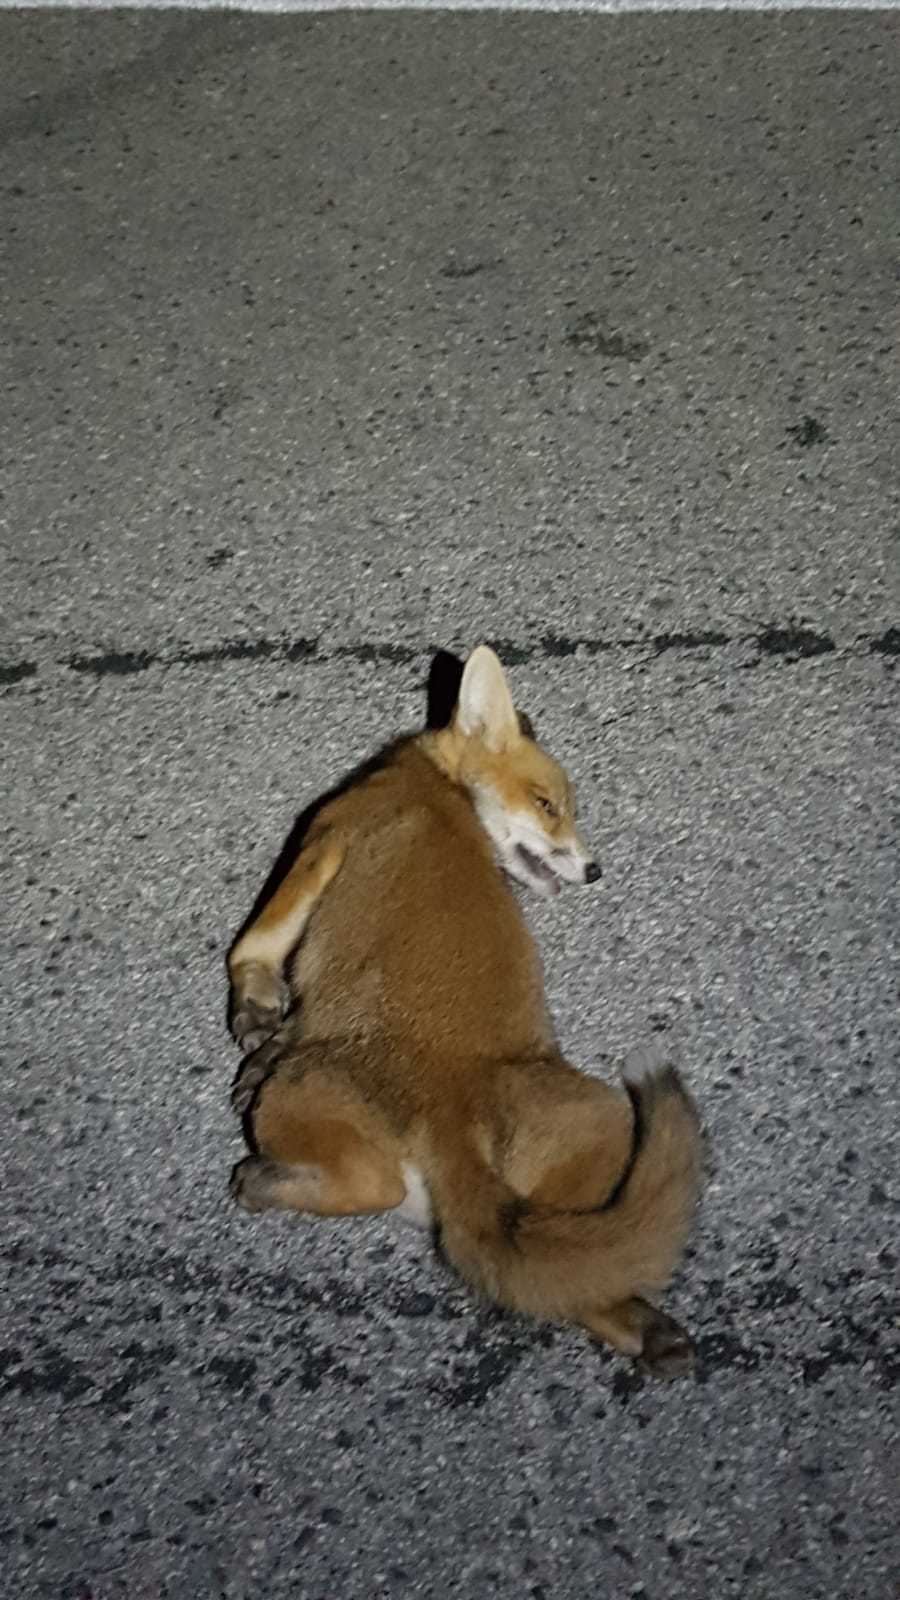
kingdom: Animalia
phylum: Chordata
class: Mammalia
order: Carnivora
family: Canidae
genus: Vulpes
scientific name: Vulpes vulpes
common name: Red fox
